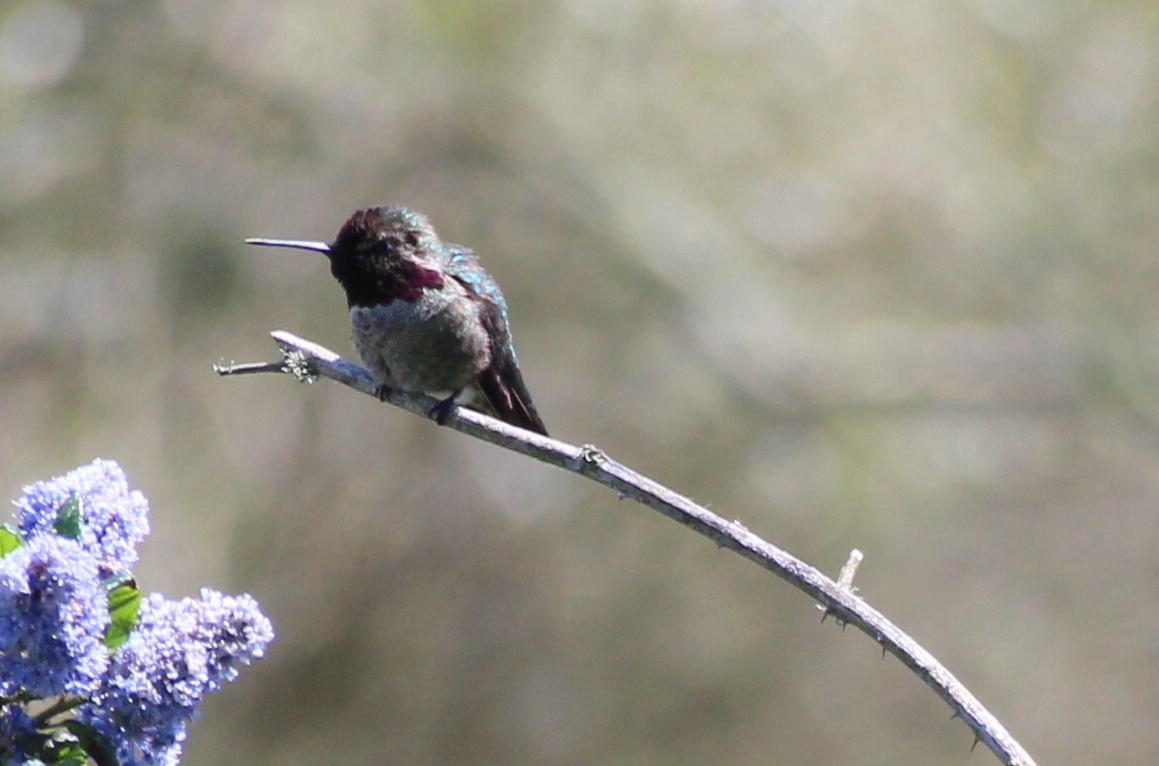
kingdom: Animalia
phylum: Chordata
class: Aves
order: Apodiformes
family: Trochilidae
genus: Calypte
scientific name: Calypte anna
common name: Anna's hummingbird
